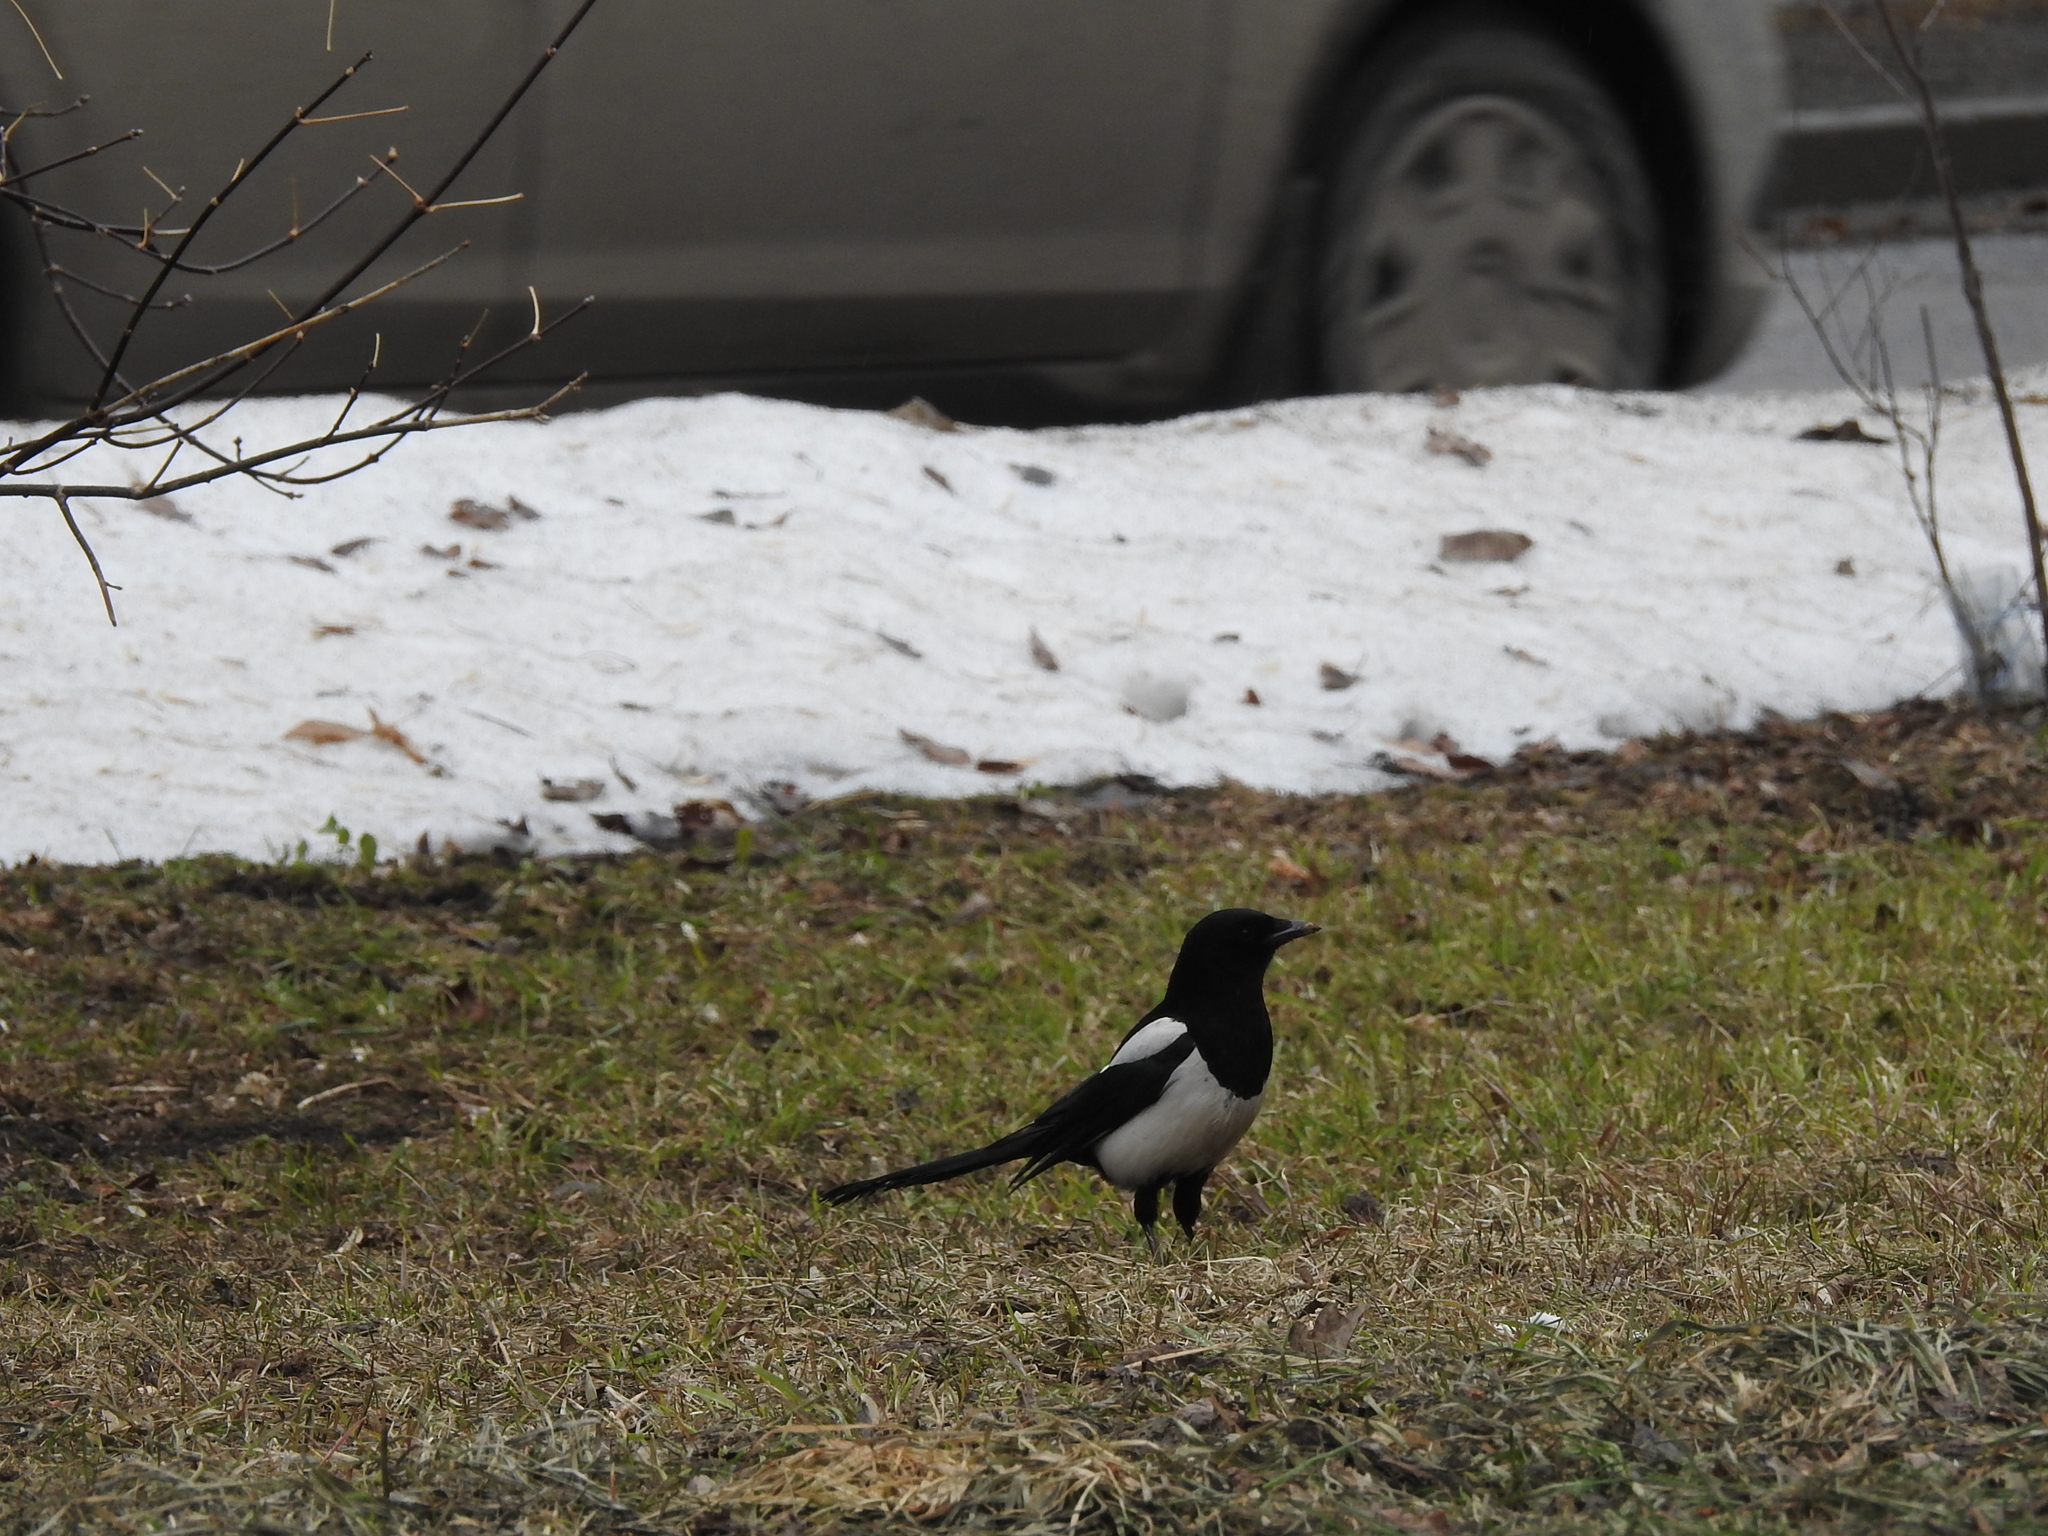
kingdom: Animalia
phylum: Chordata
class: Aves
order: Passeriformes
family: Corvidae
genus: Pica
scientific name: Pica pica
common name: Eurasian magpie
